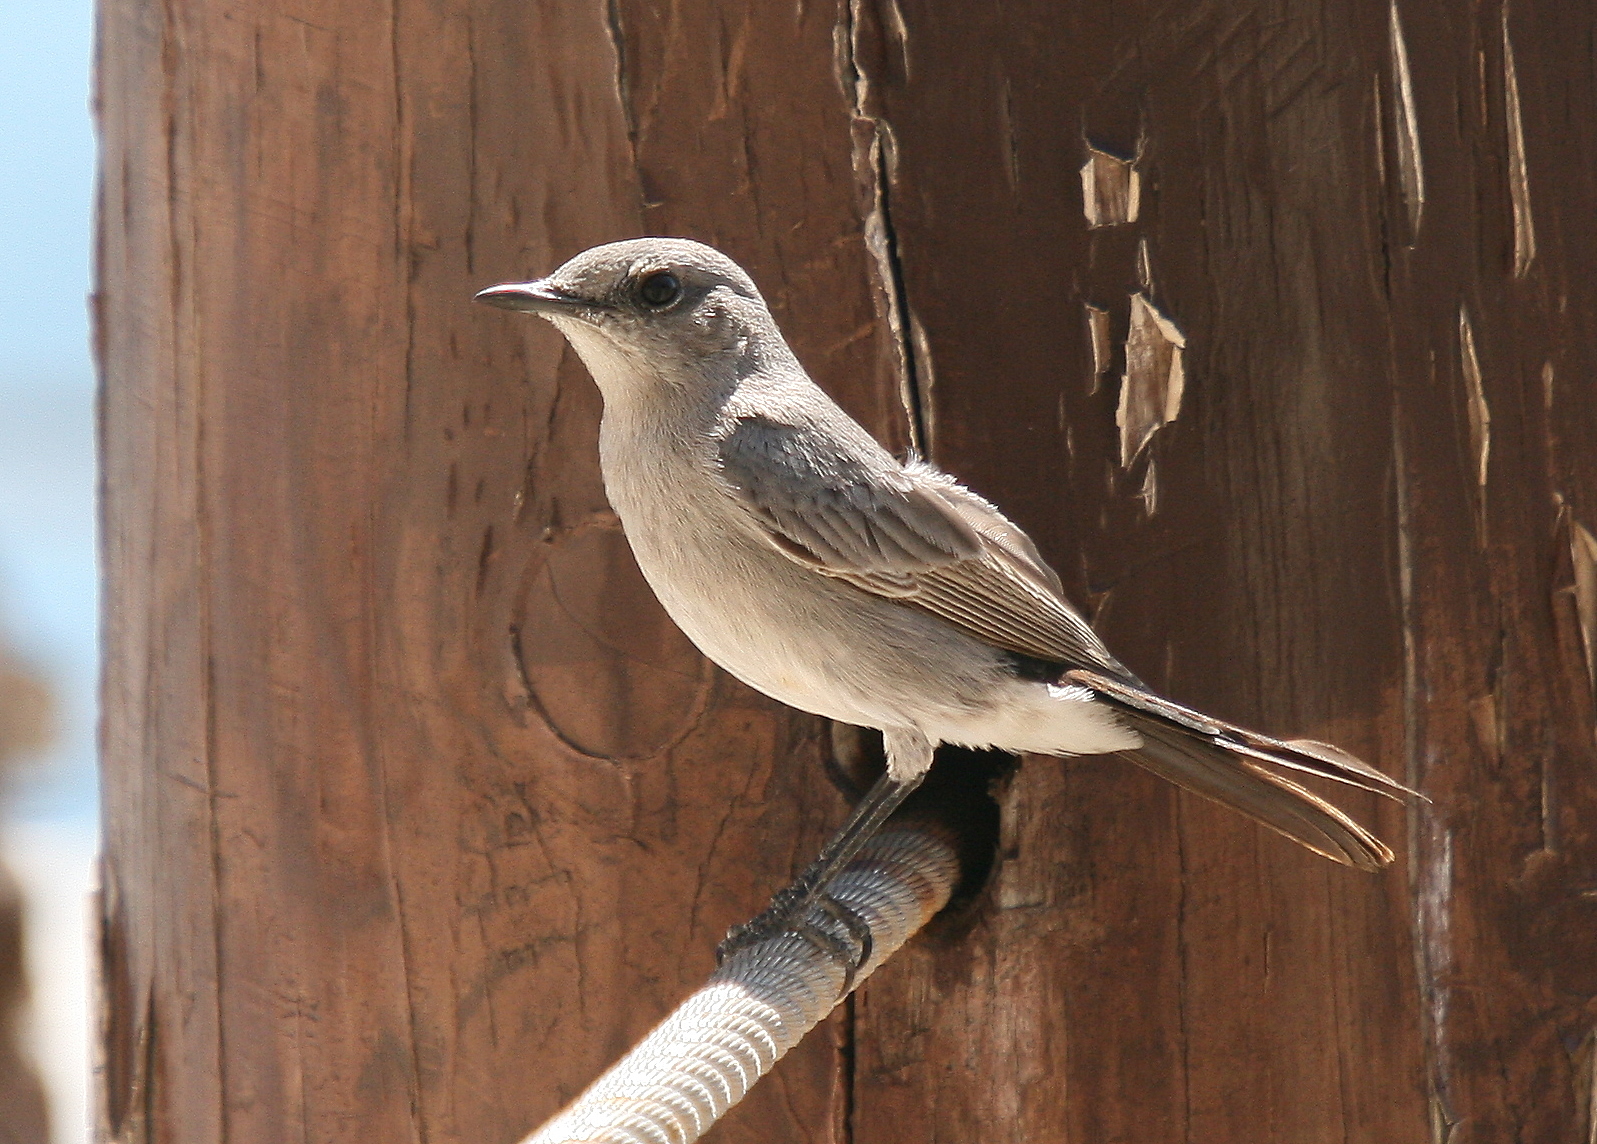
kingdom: Animalia
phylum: Chordata
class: Aves
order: Passeriformes
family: Muscicapidae
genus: Oenanthe
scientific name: Oenanthe melanura
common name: Blackstart
